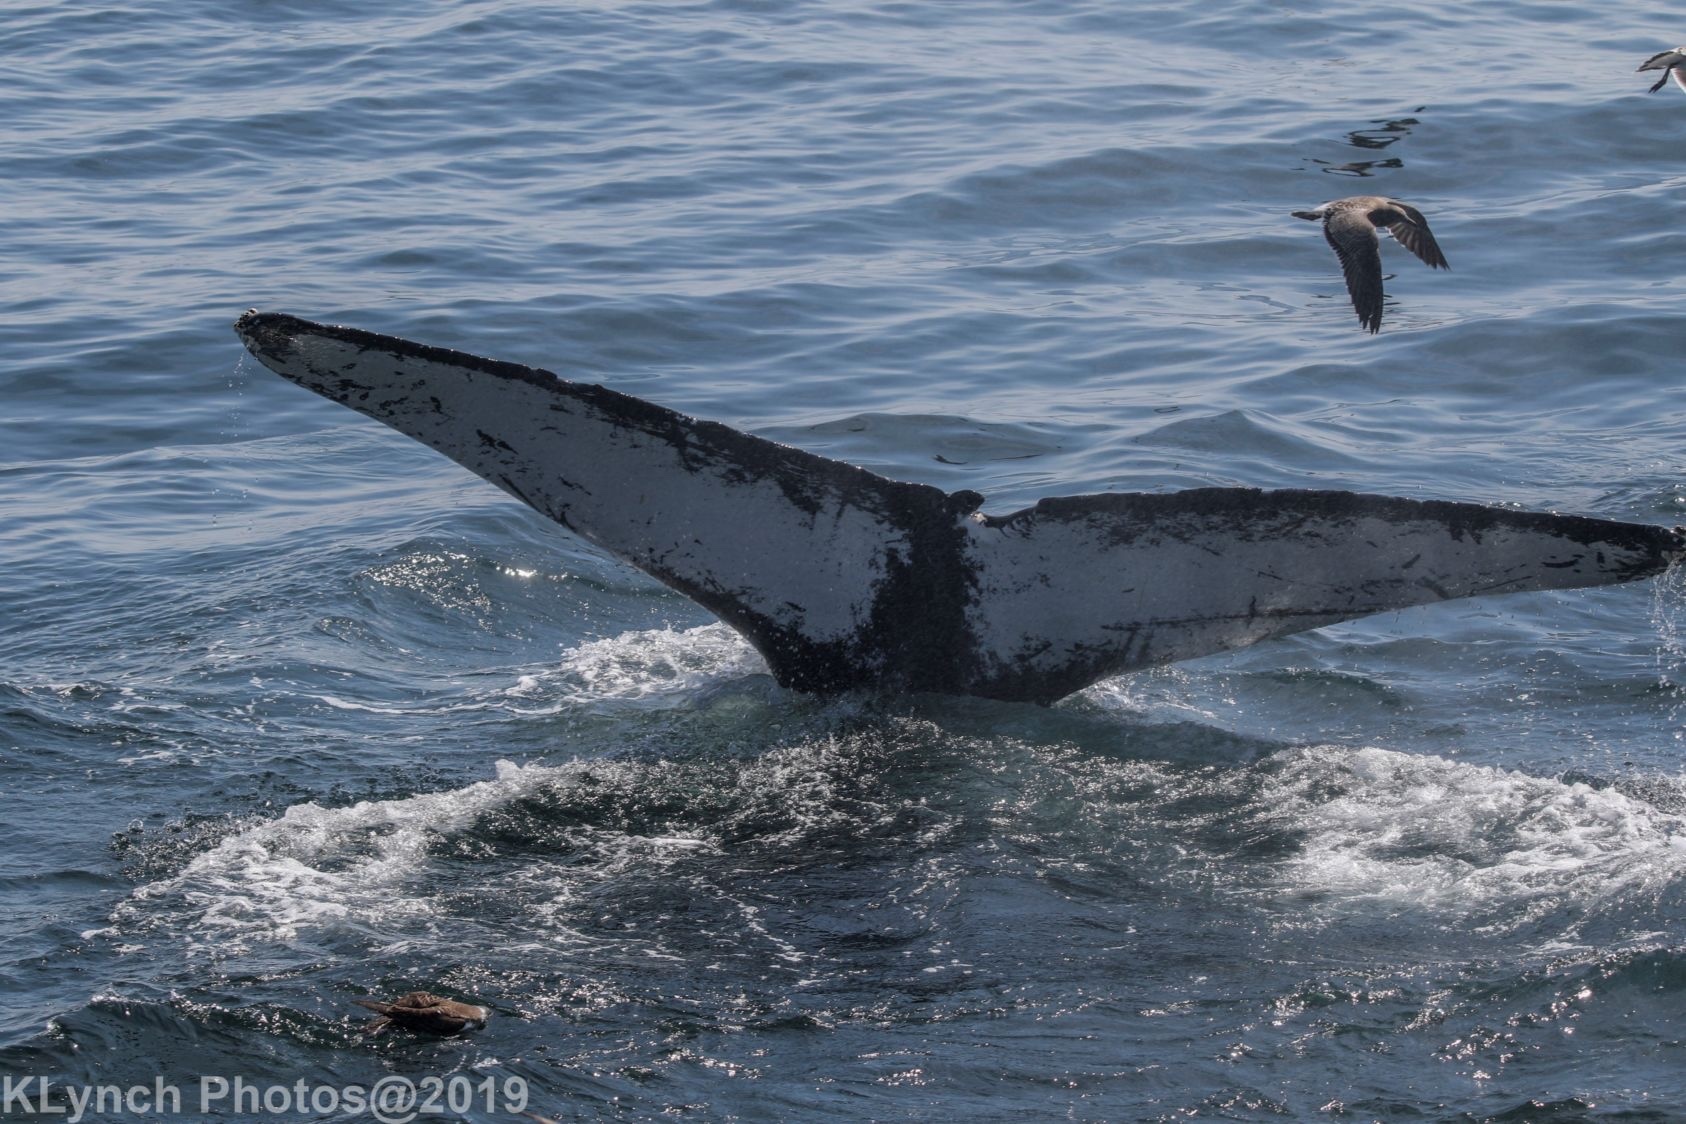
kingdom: Animalia
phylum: Chordata
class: Mammalia
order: Cetacea
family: Balaenopteridae
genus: Megaptera
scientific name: Megaptera novaeangliae
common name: Humpback whale
